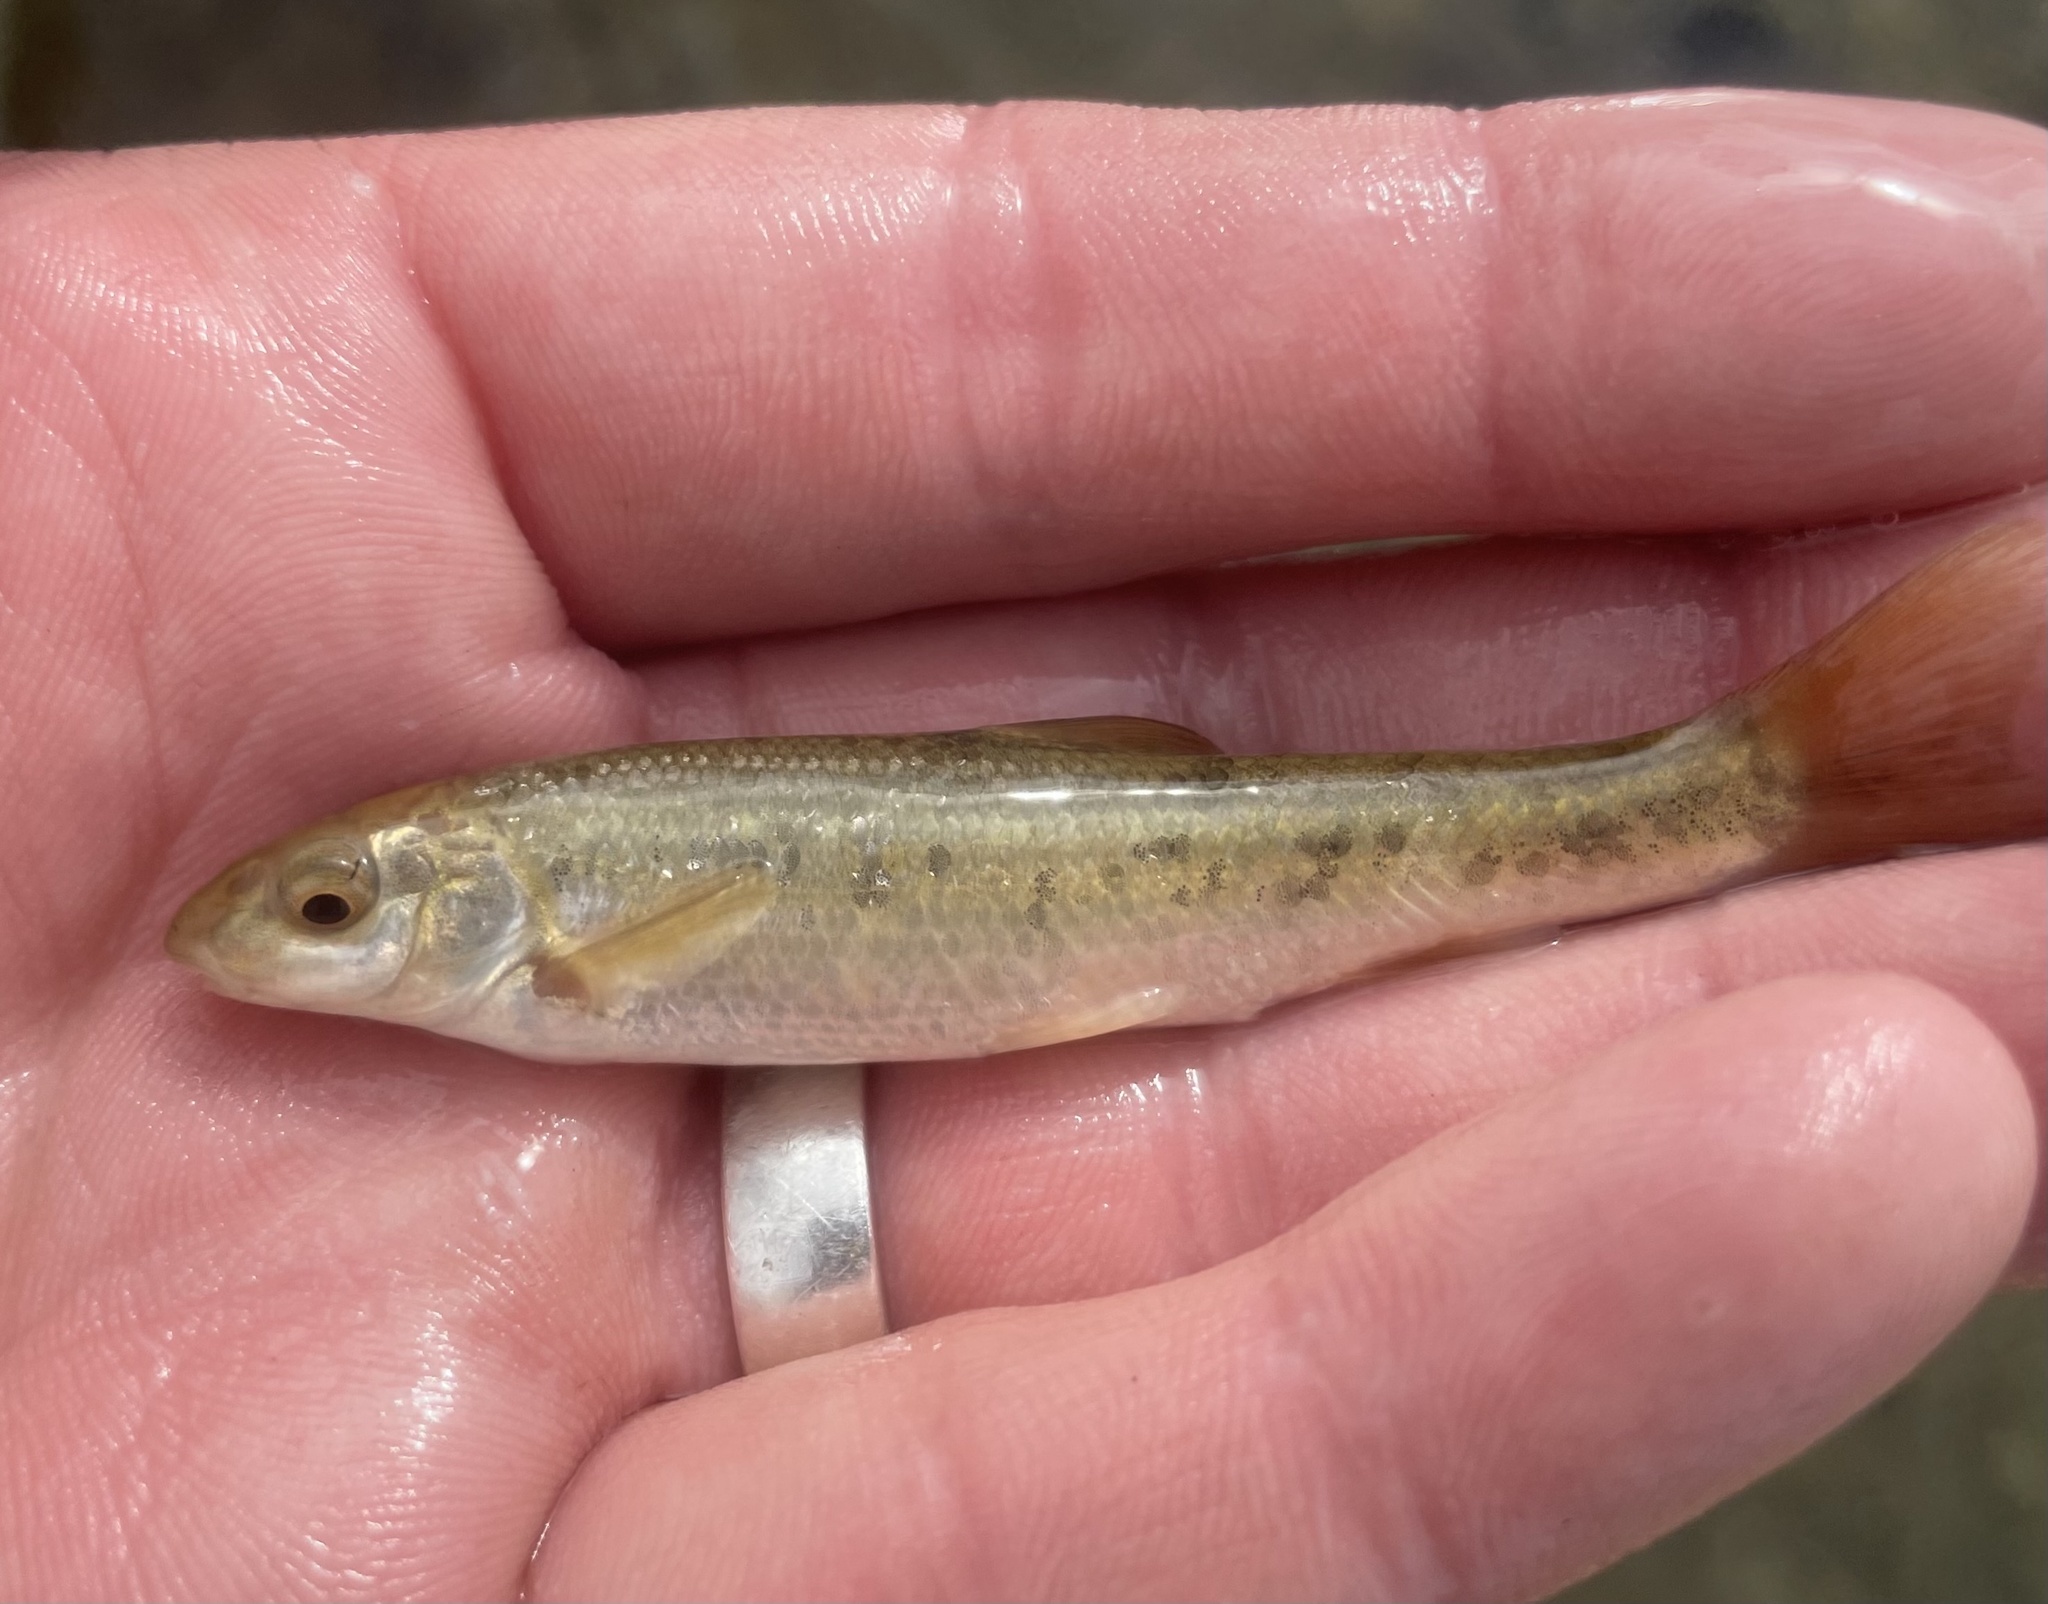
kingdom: Animalia
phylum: Chordata
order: Cypriniformes
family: Cyprinidae
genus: Campostoma
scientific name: Campostoma anomalum
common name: Central stoneroller
